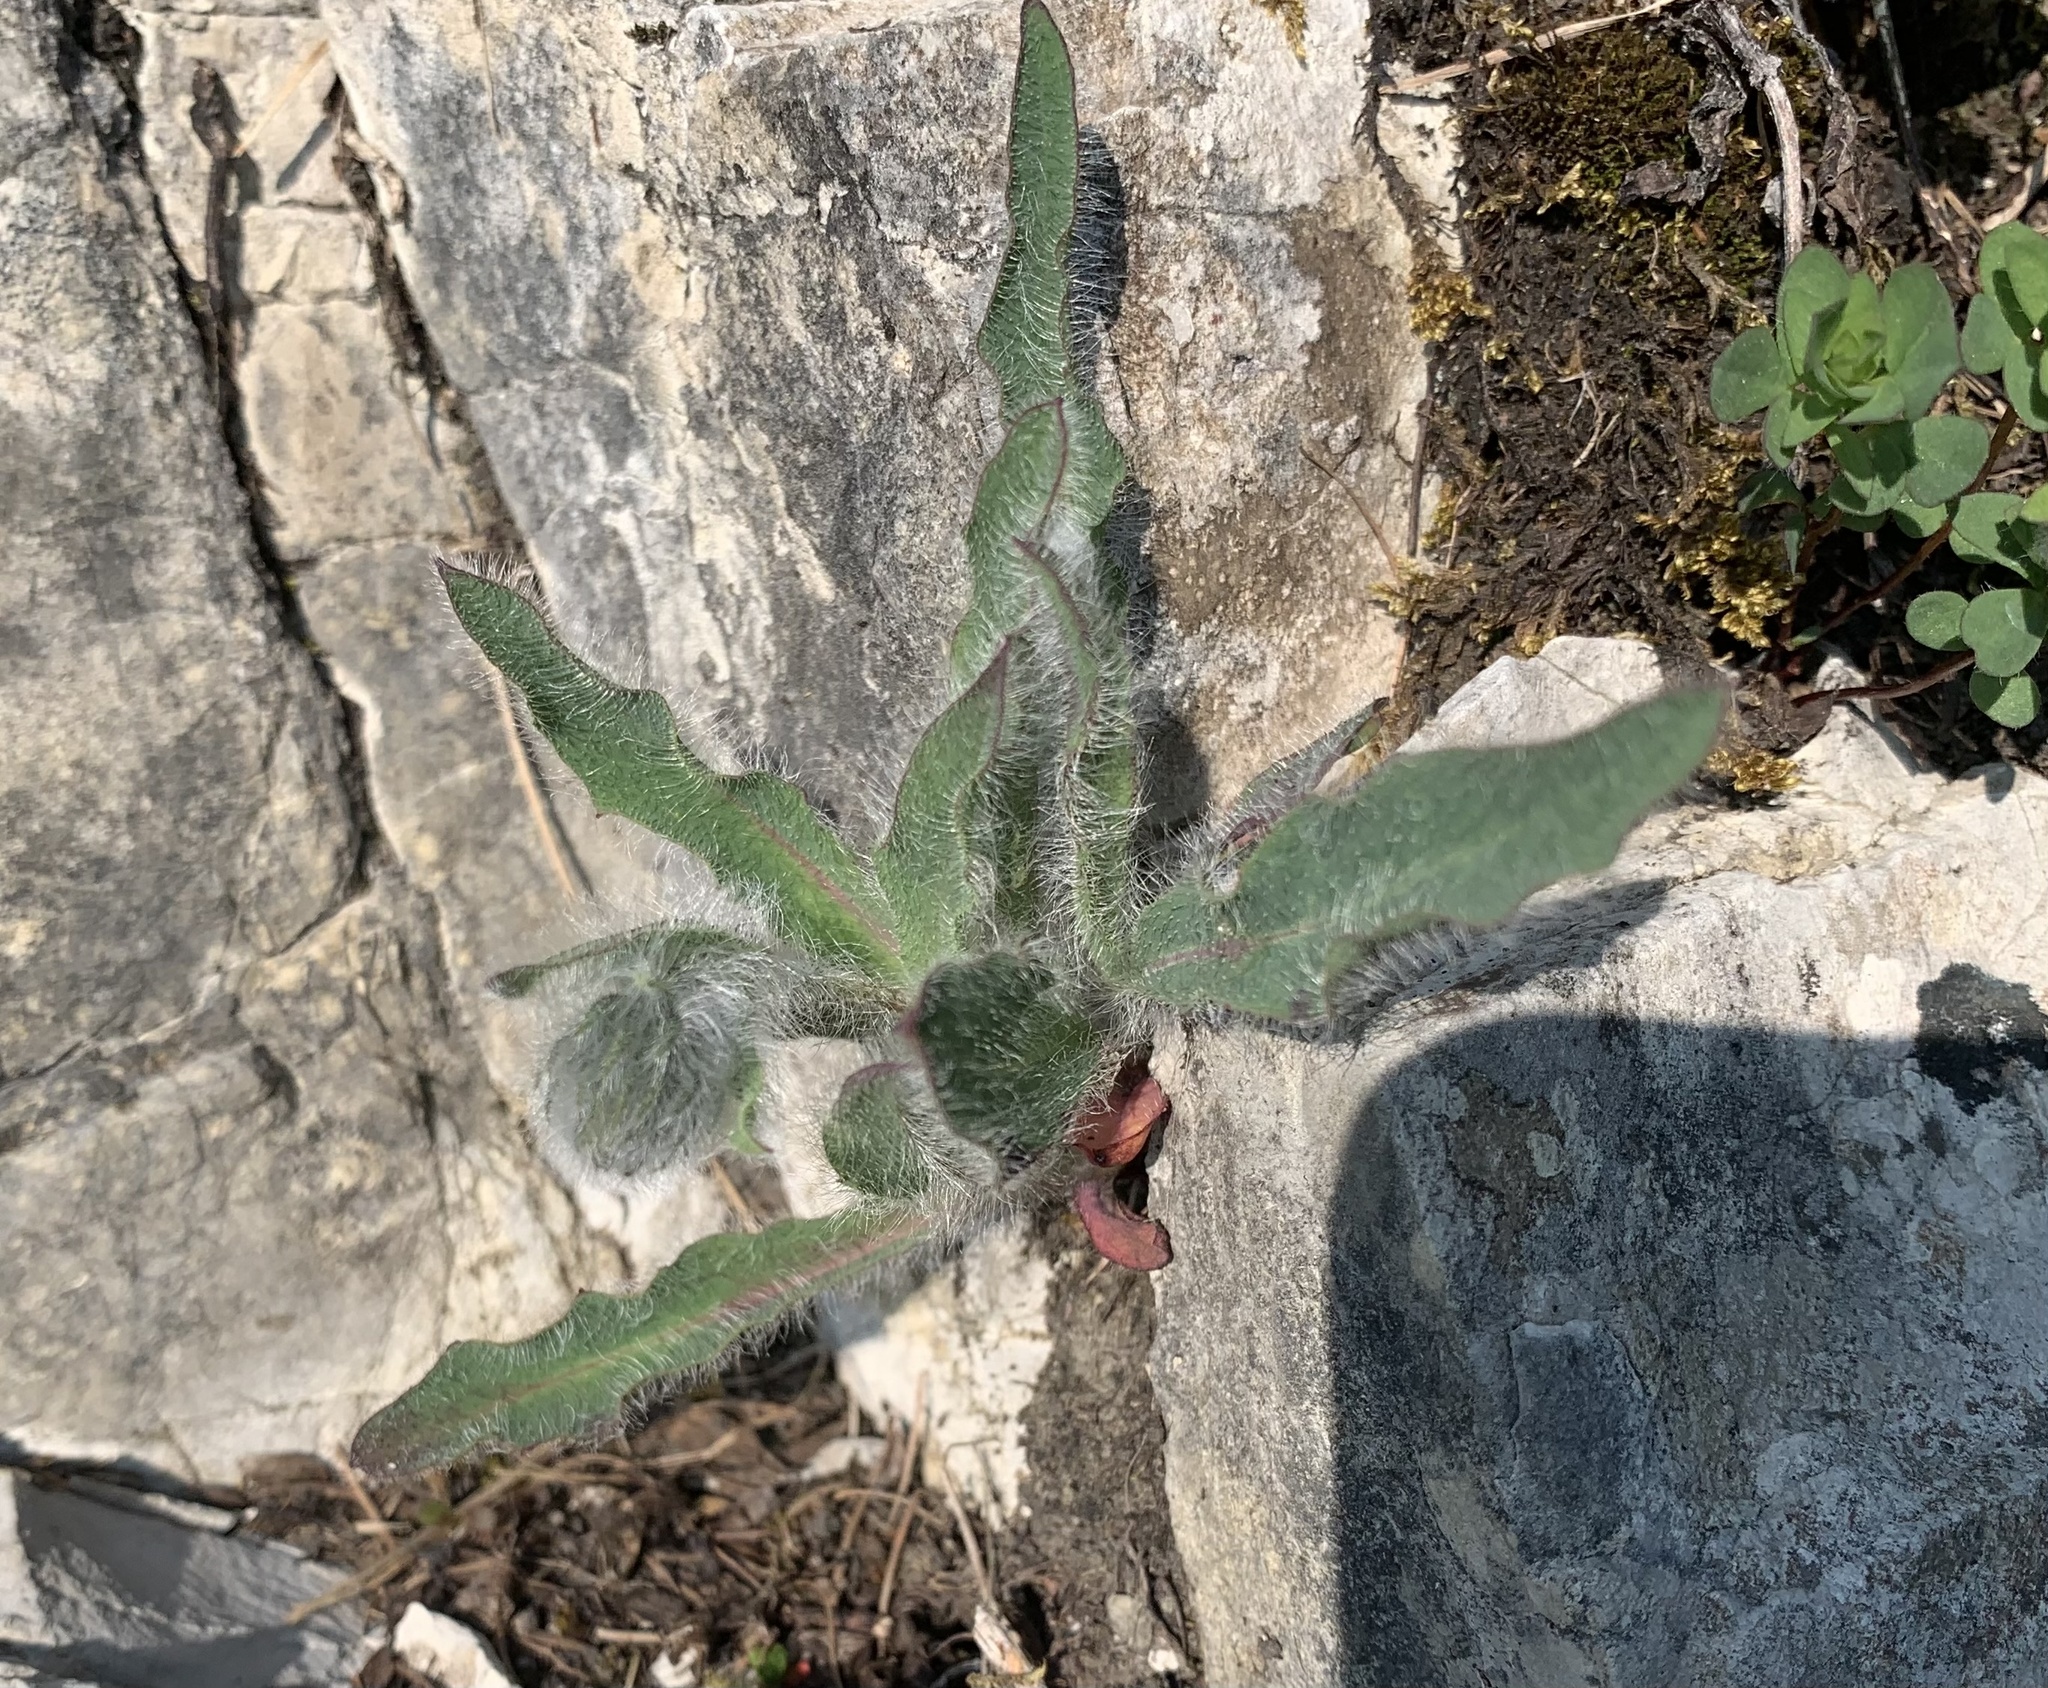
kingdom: Plantae
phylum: Tracheophyta
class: Magnoliopsida
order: Asterales
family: Asteraceae
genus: Hieracium
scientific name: Hieracium pilosum
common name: Fimbriate-pitted hawkweed
